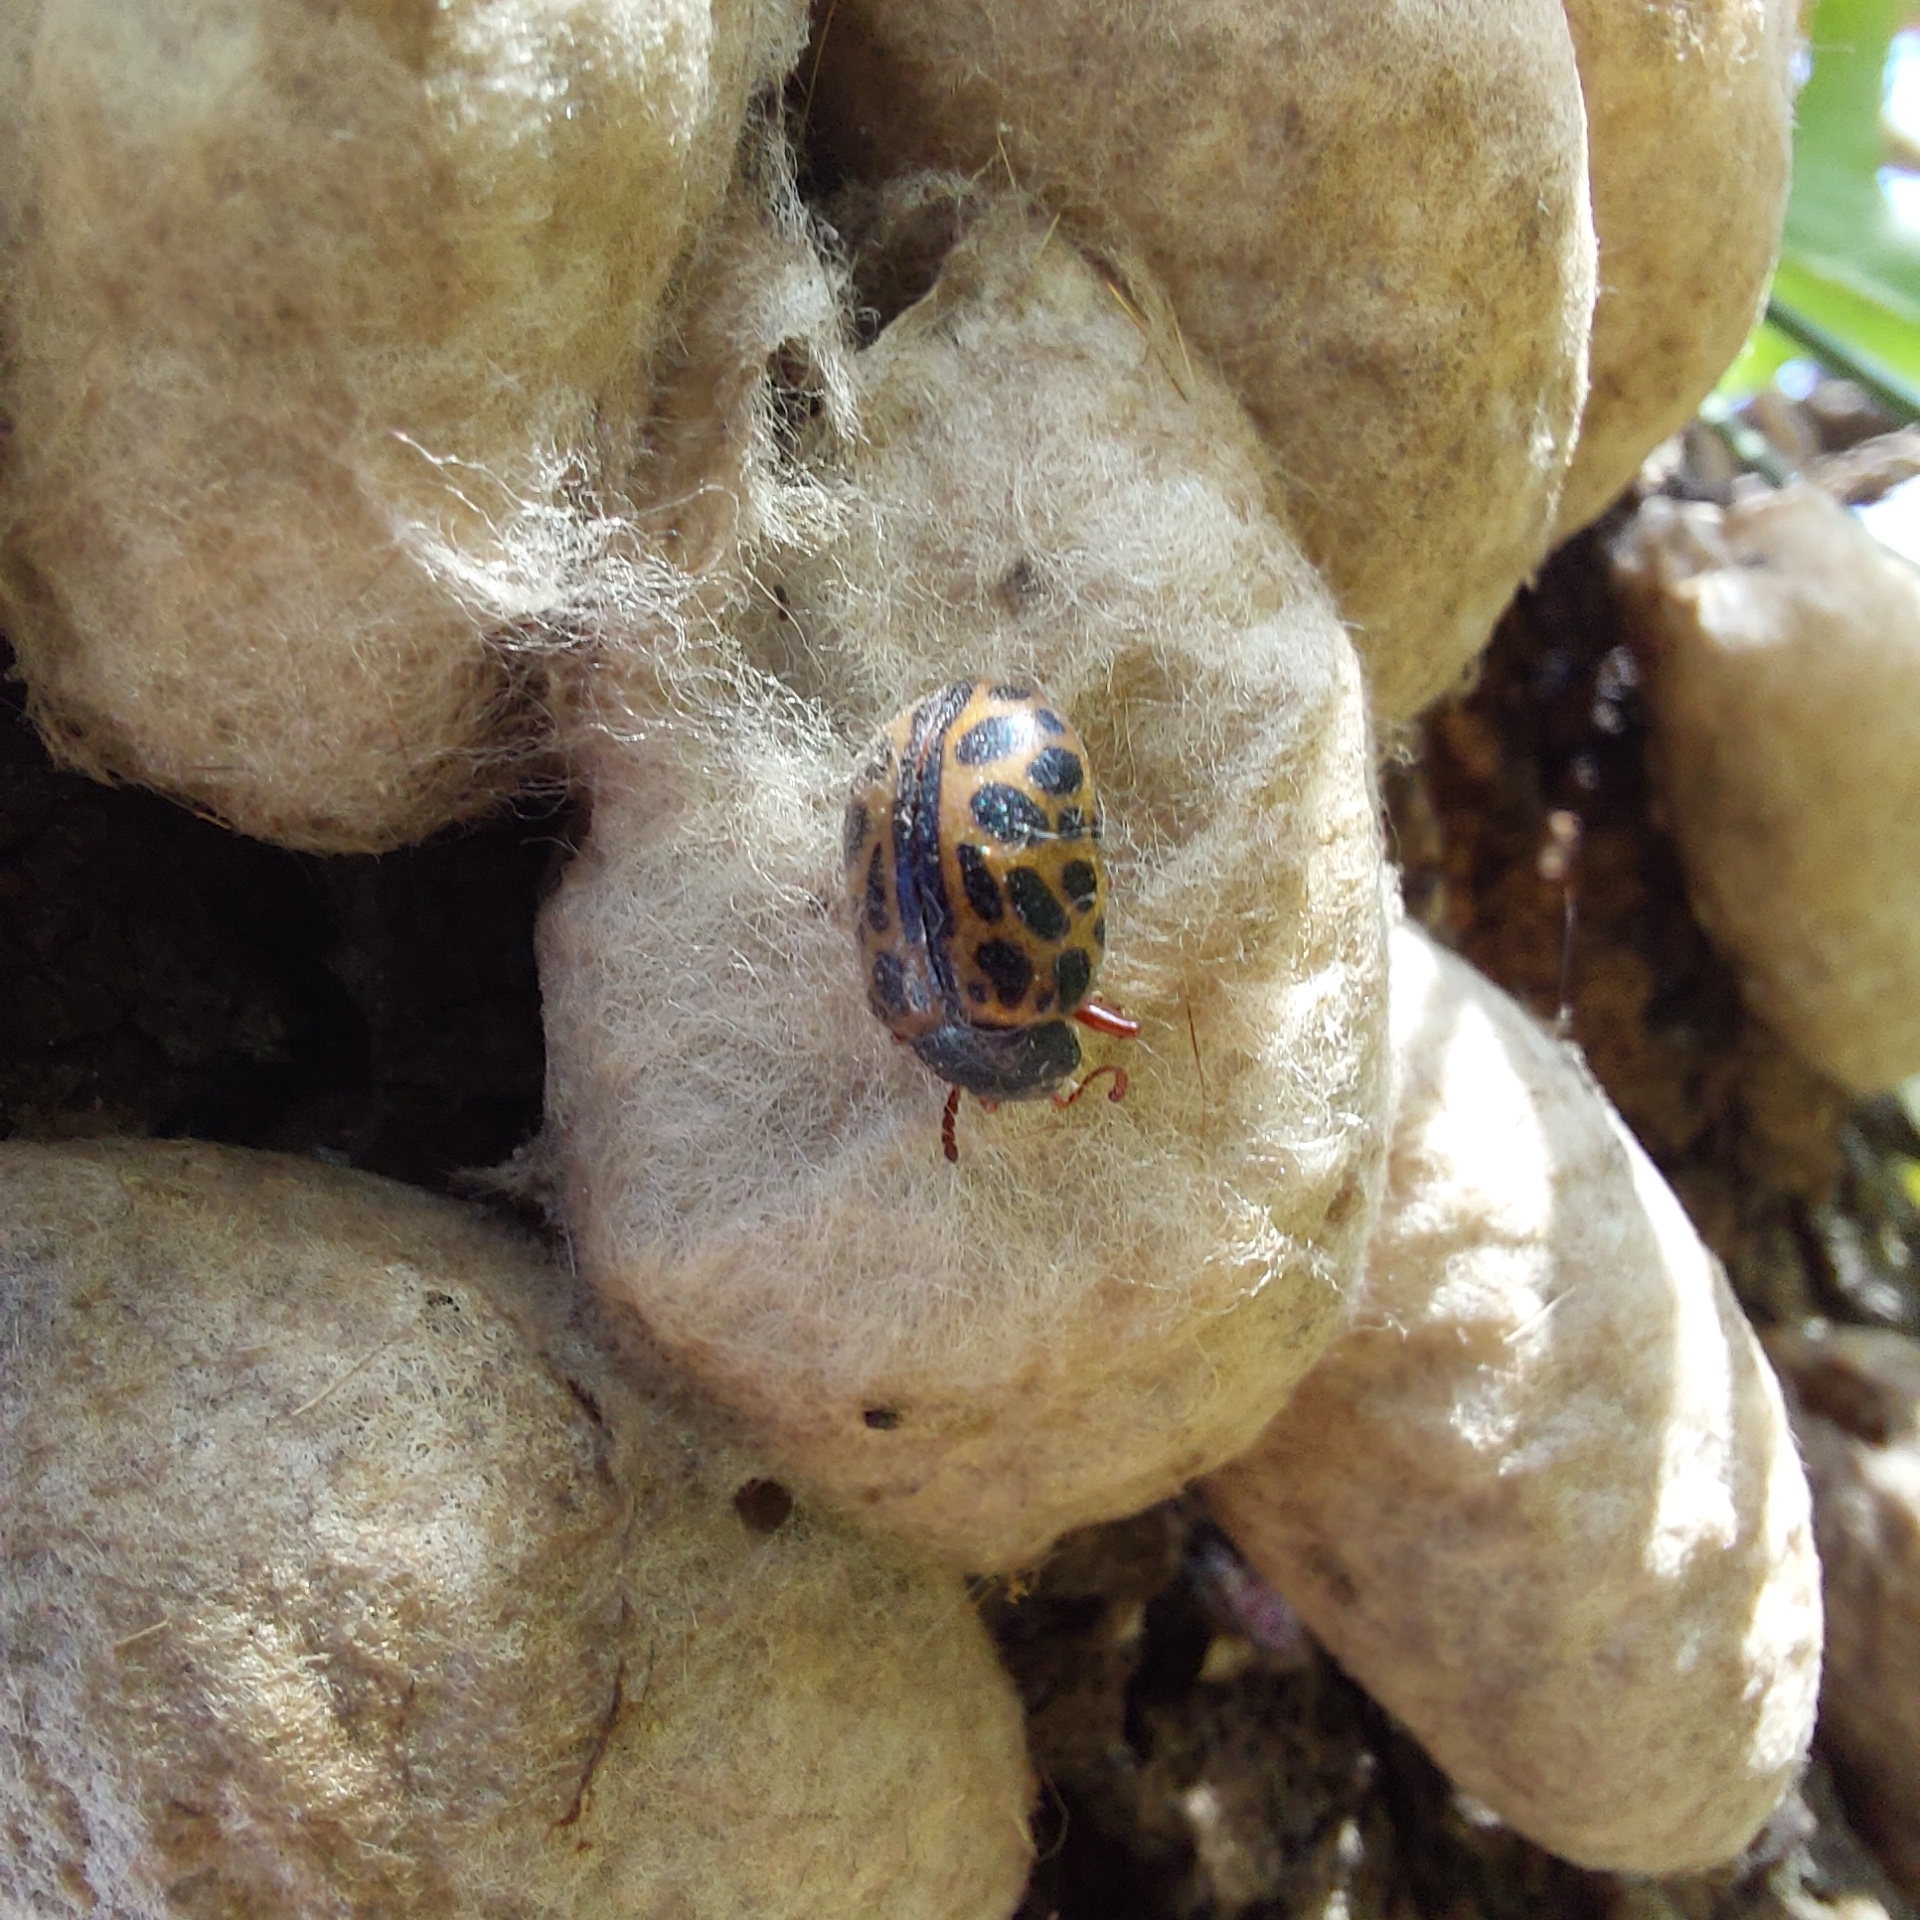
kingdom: Animalia
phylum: Arthropoda
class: Insecta
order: Coleoptera
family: Chrysomelidae
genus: Calligrapha
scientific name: Calligrapha polyspila
